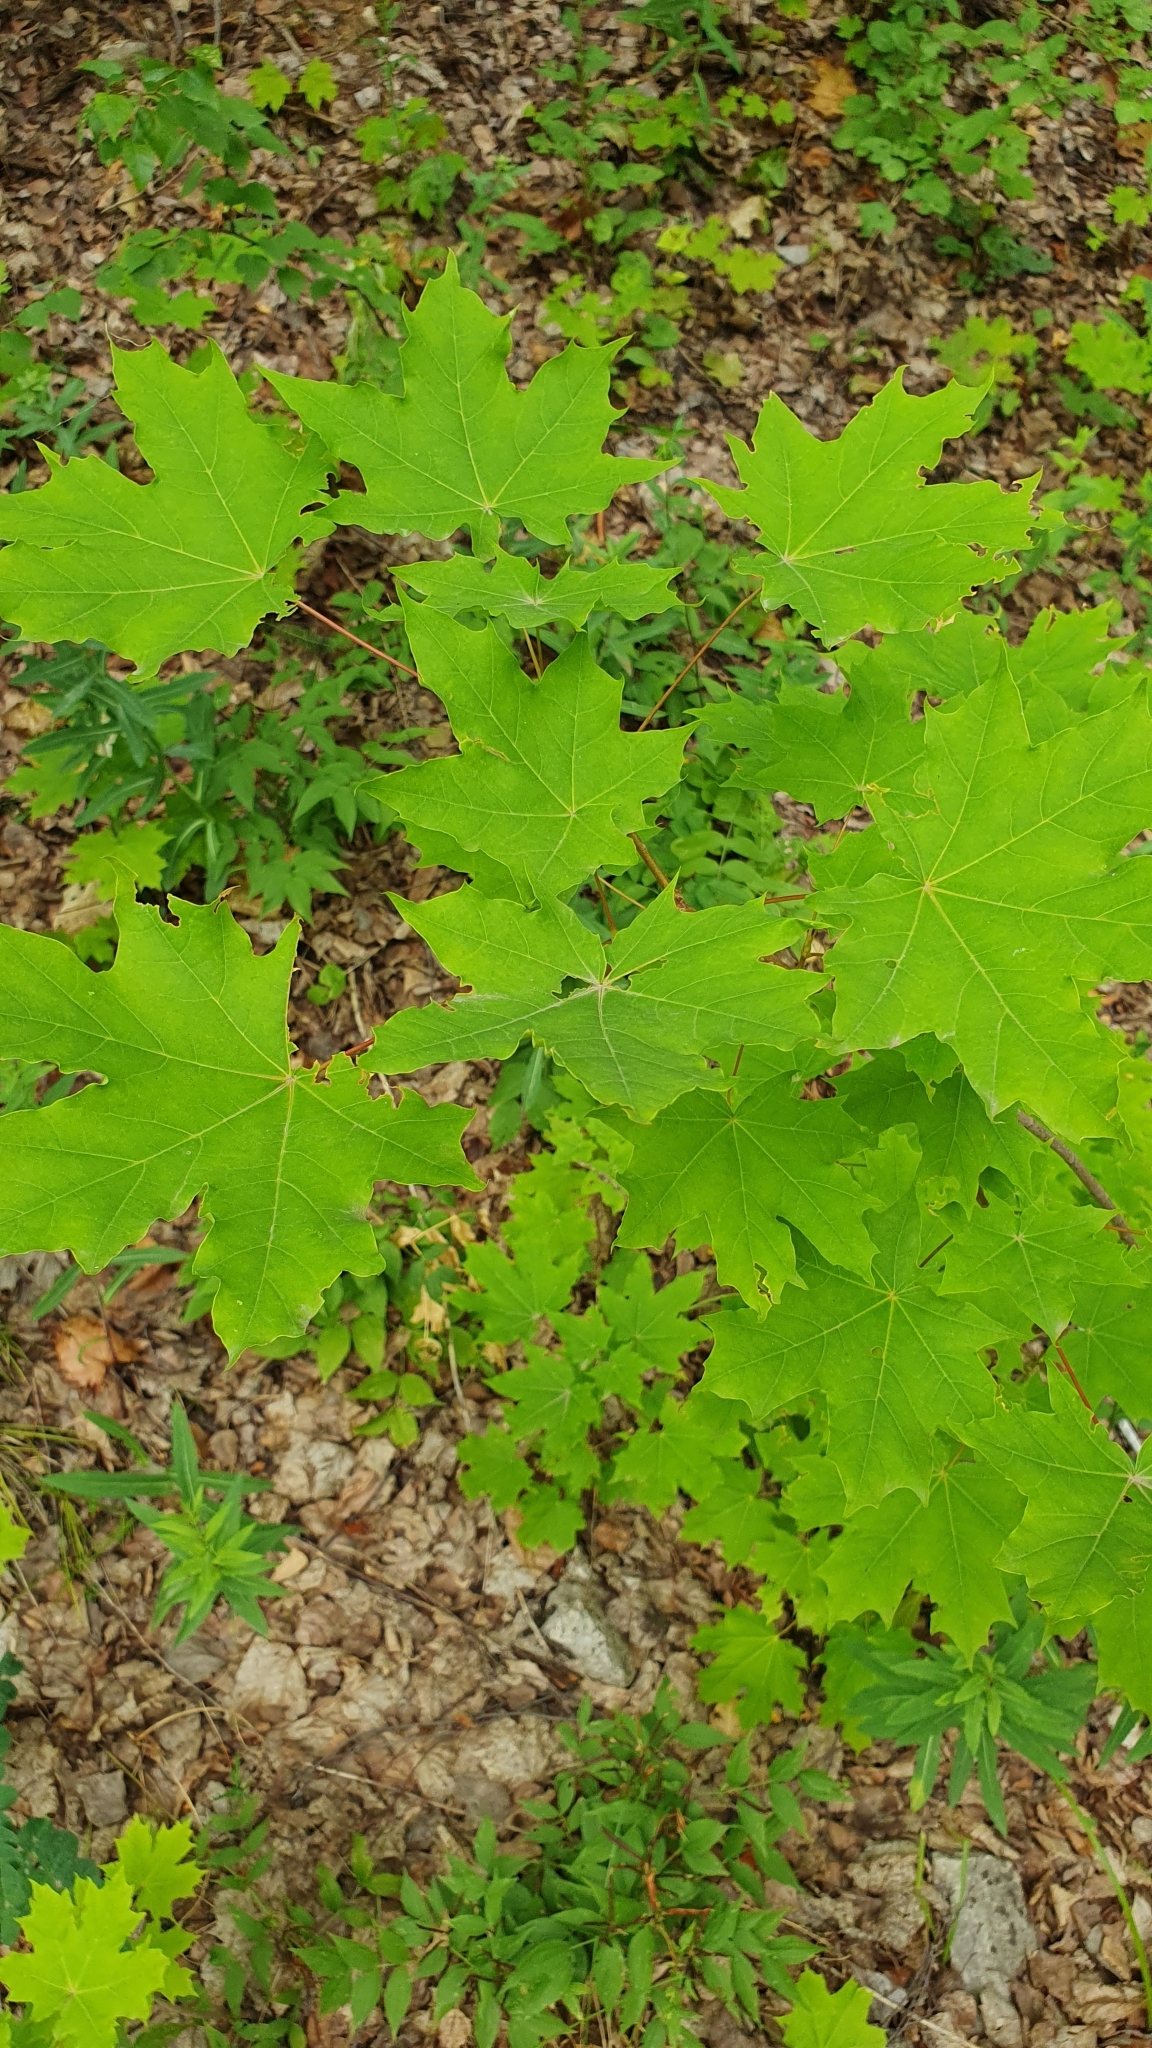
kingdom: Plantae
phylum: Tracheophyta
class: Magnoliopsida
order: Sapindales
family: Sapindaceae
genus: Acer
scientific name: Acer platanoides
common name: Norway maple
